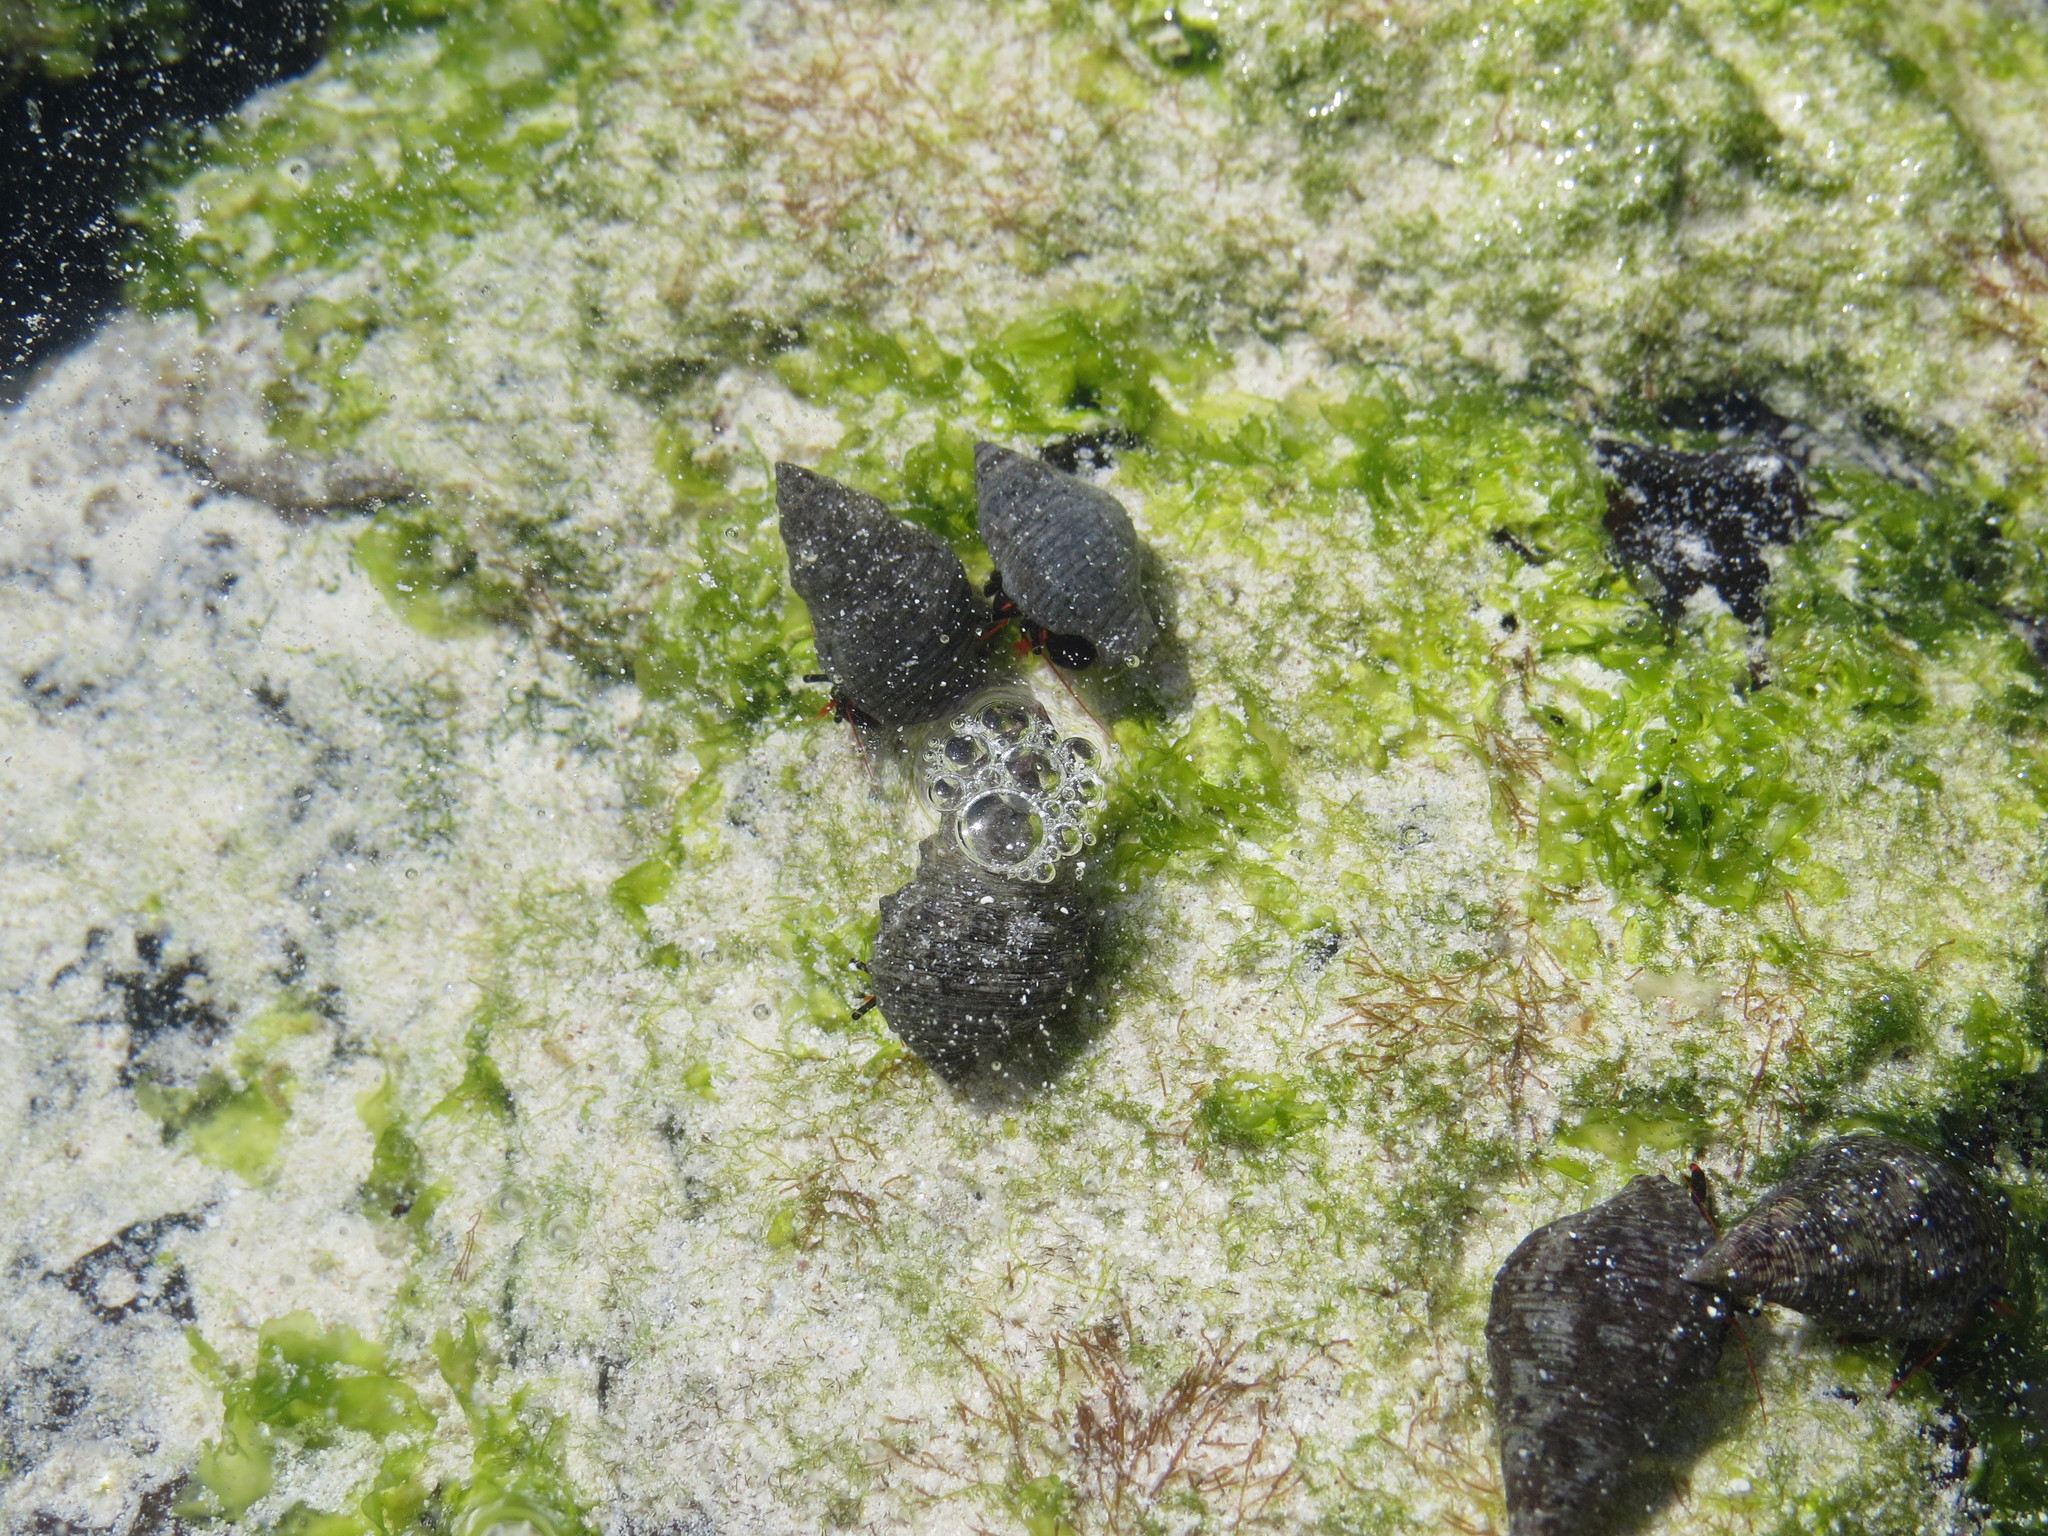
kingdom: Animalia
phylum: Arthropoda
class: Malacostraca
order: Decapoda
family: Diogenidae
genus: Calcinus
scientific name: Calcinus explorator
